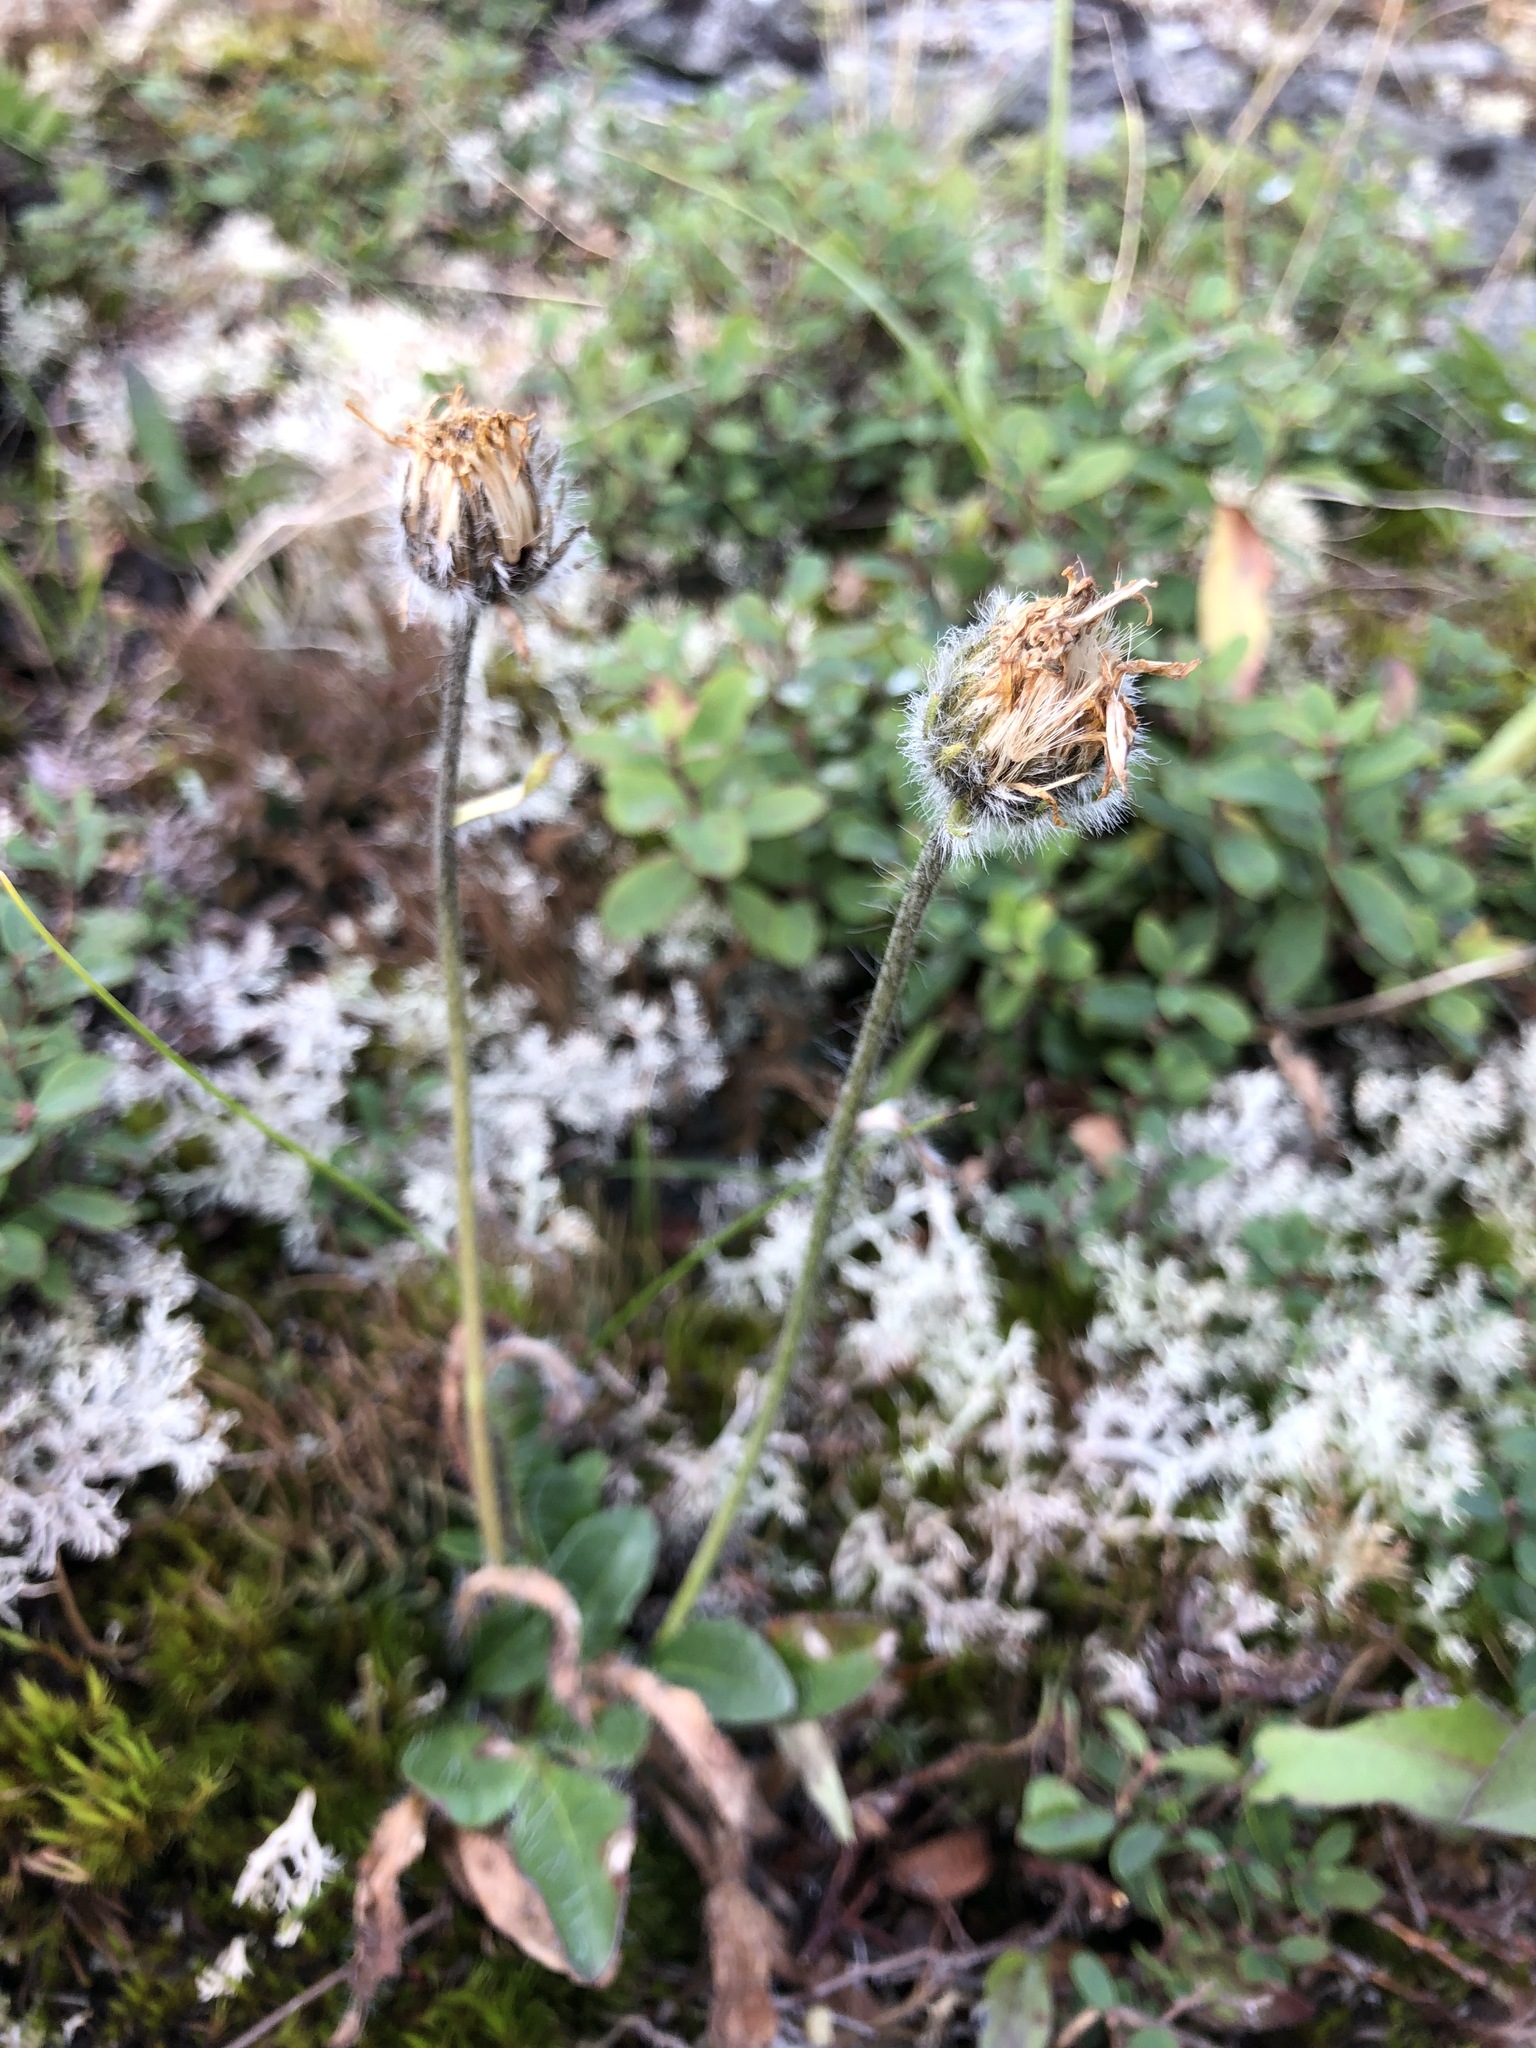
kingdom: Plantae
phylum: Tracheophyta
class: Magnoliopsida
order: Asterales
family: Asteraceae
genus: Hieracium
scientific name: Hieracium alpinum
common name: Alpine hawkweed
